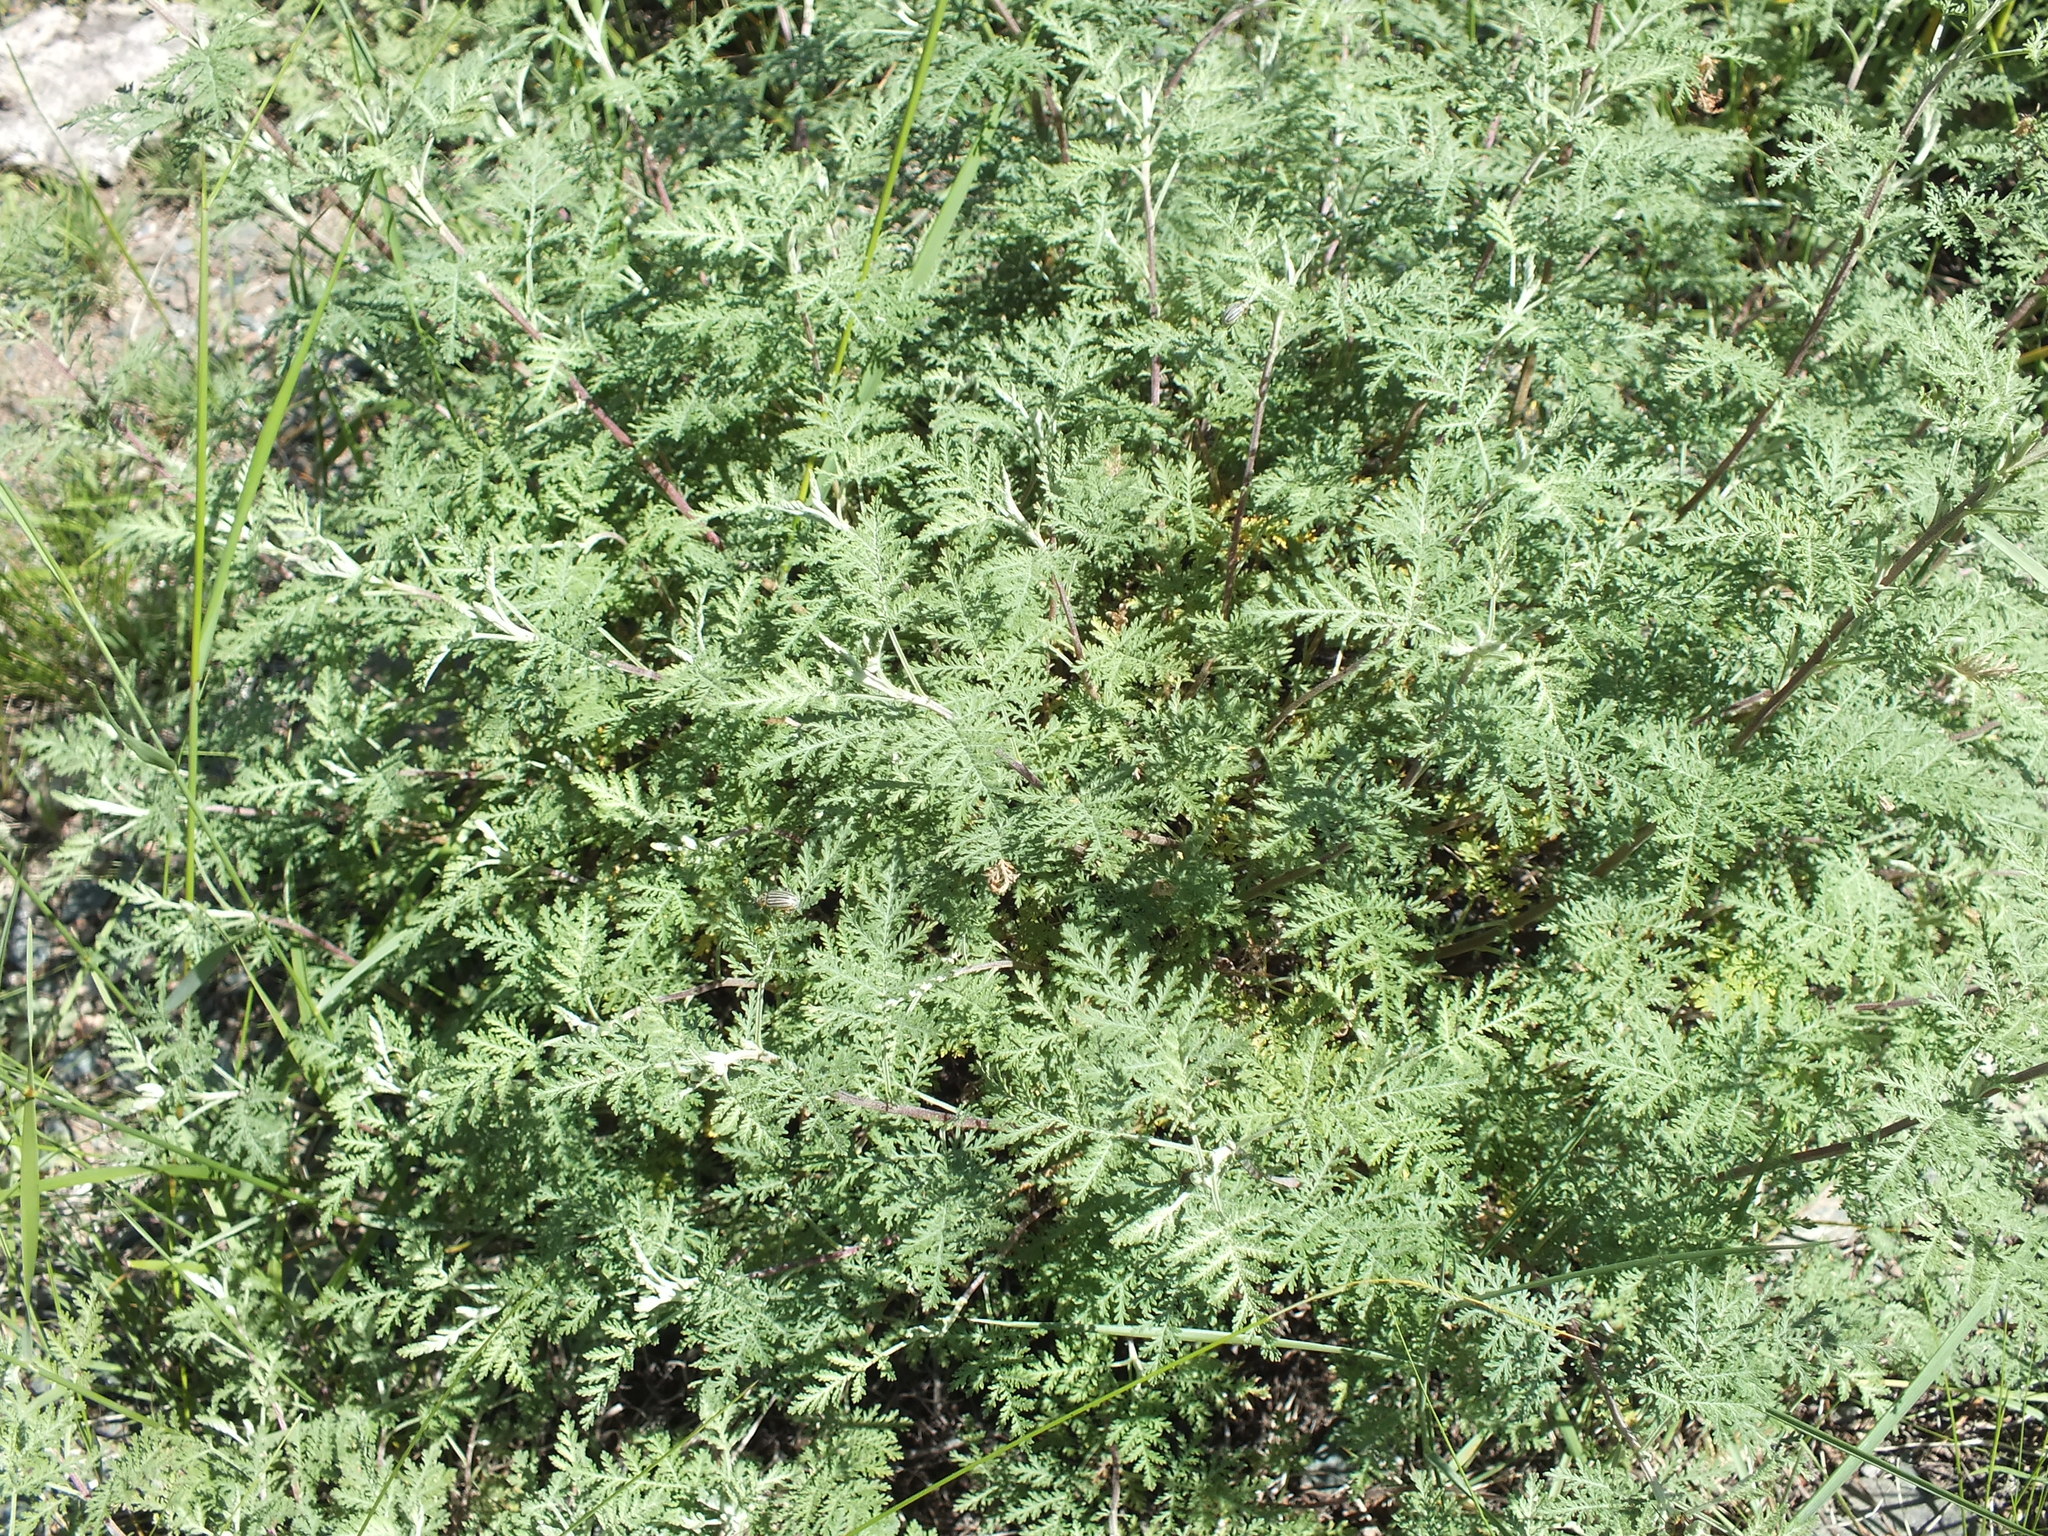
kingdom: Plantae
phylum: Tracheophyta
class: Magnoliopsida
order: Asterales
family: Asteraceae
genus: Artemisia
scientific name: Artemisia gmelinii
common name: Gmelin's wormwood
